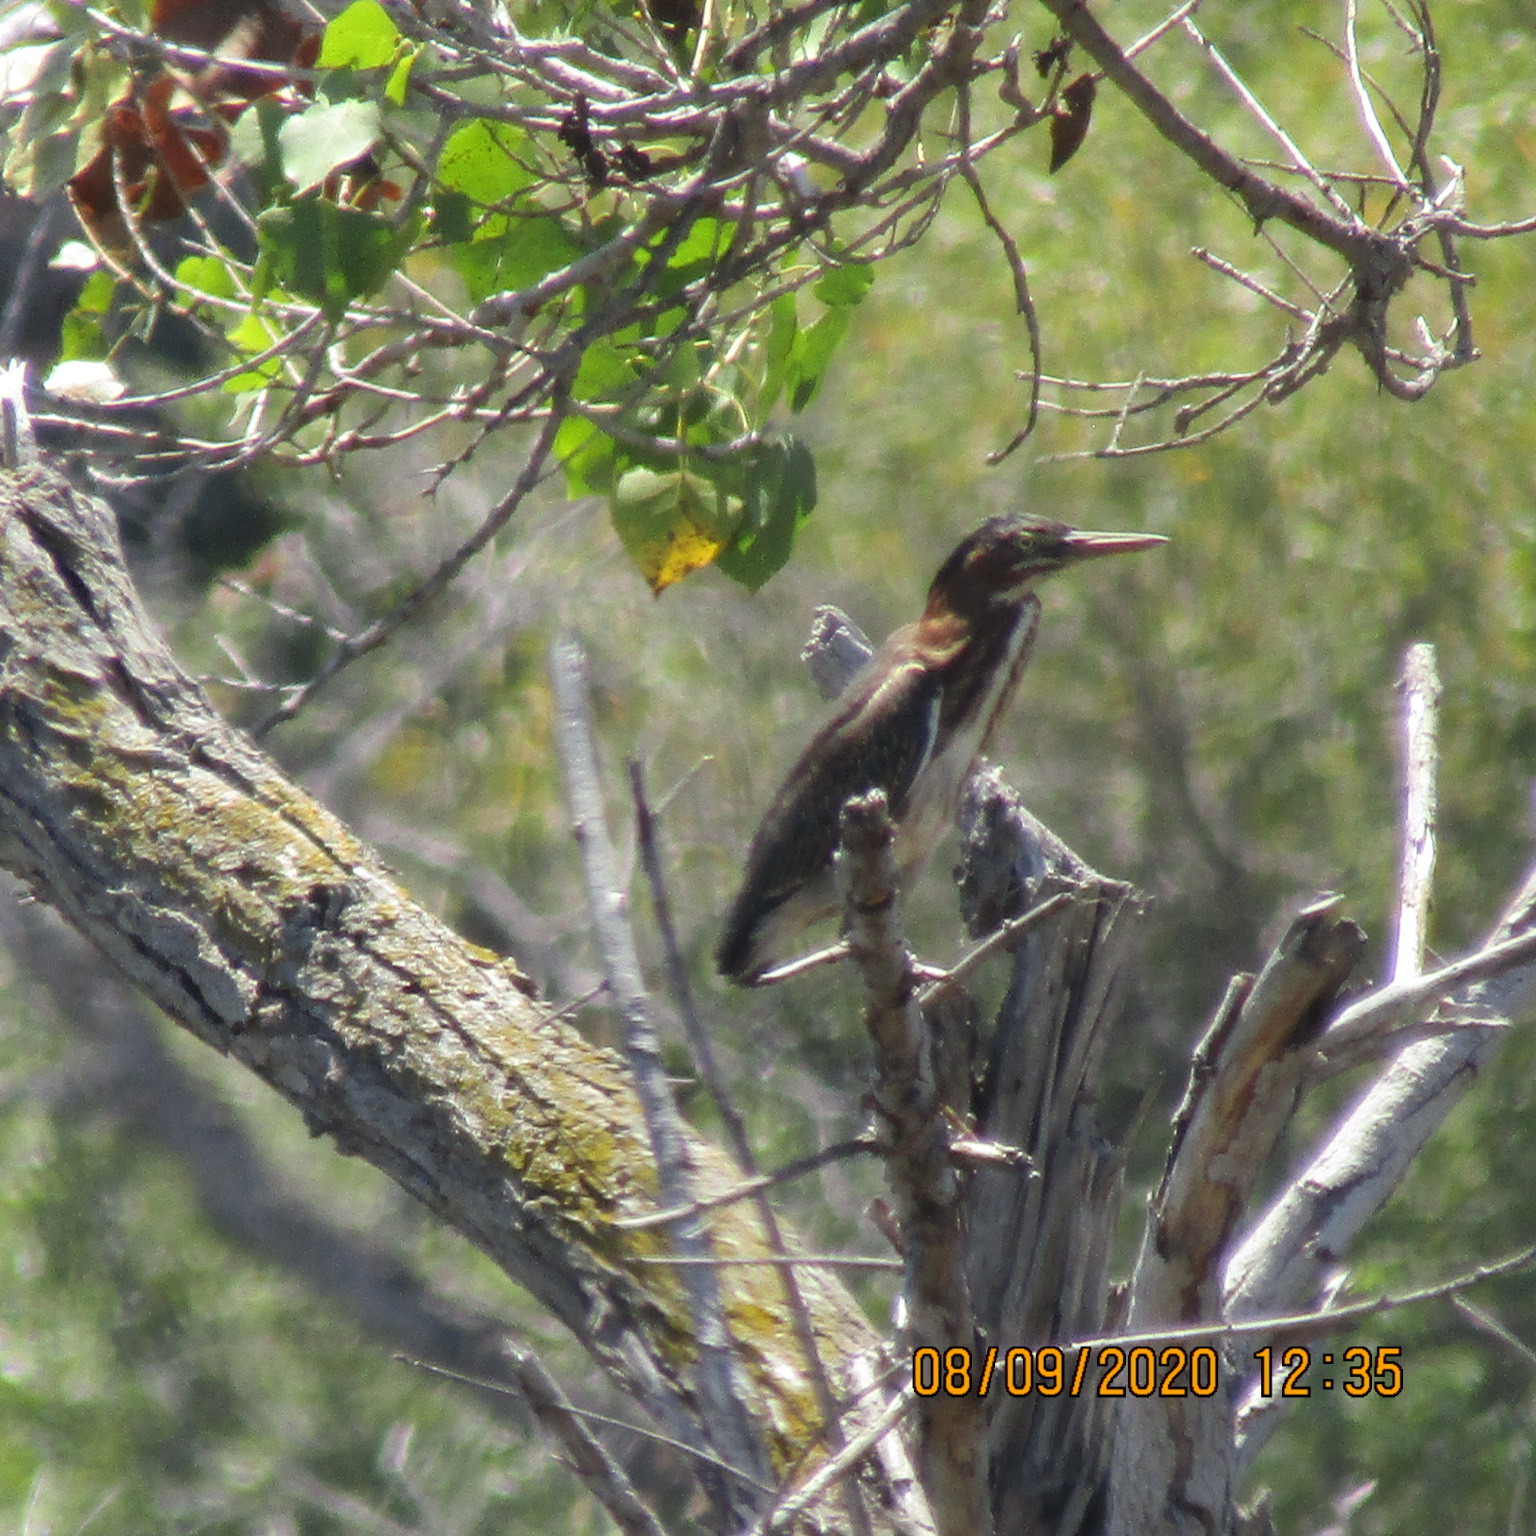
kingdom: Animalia
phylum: Chordata
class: Aves
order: Pelecaniformes
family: Ardeidae
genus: Butorides
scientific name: Butorides virescens
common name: Green heron
